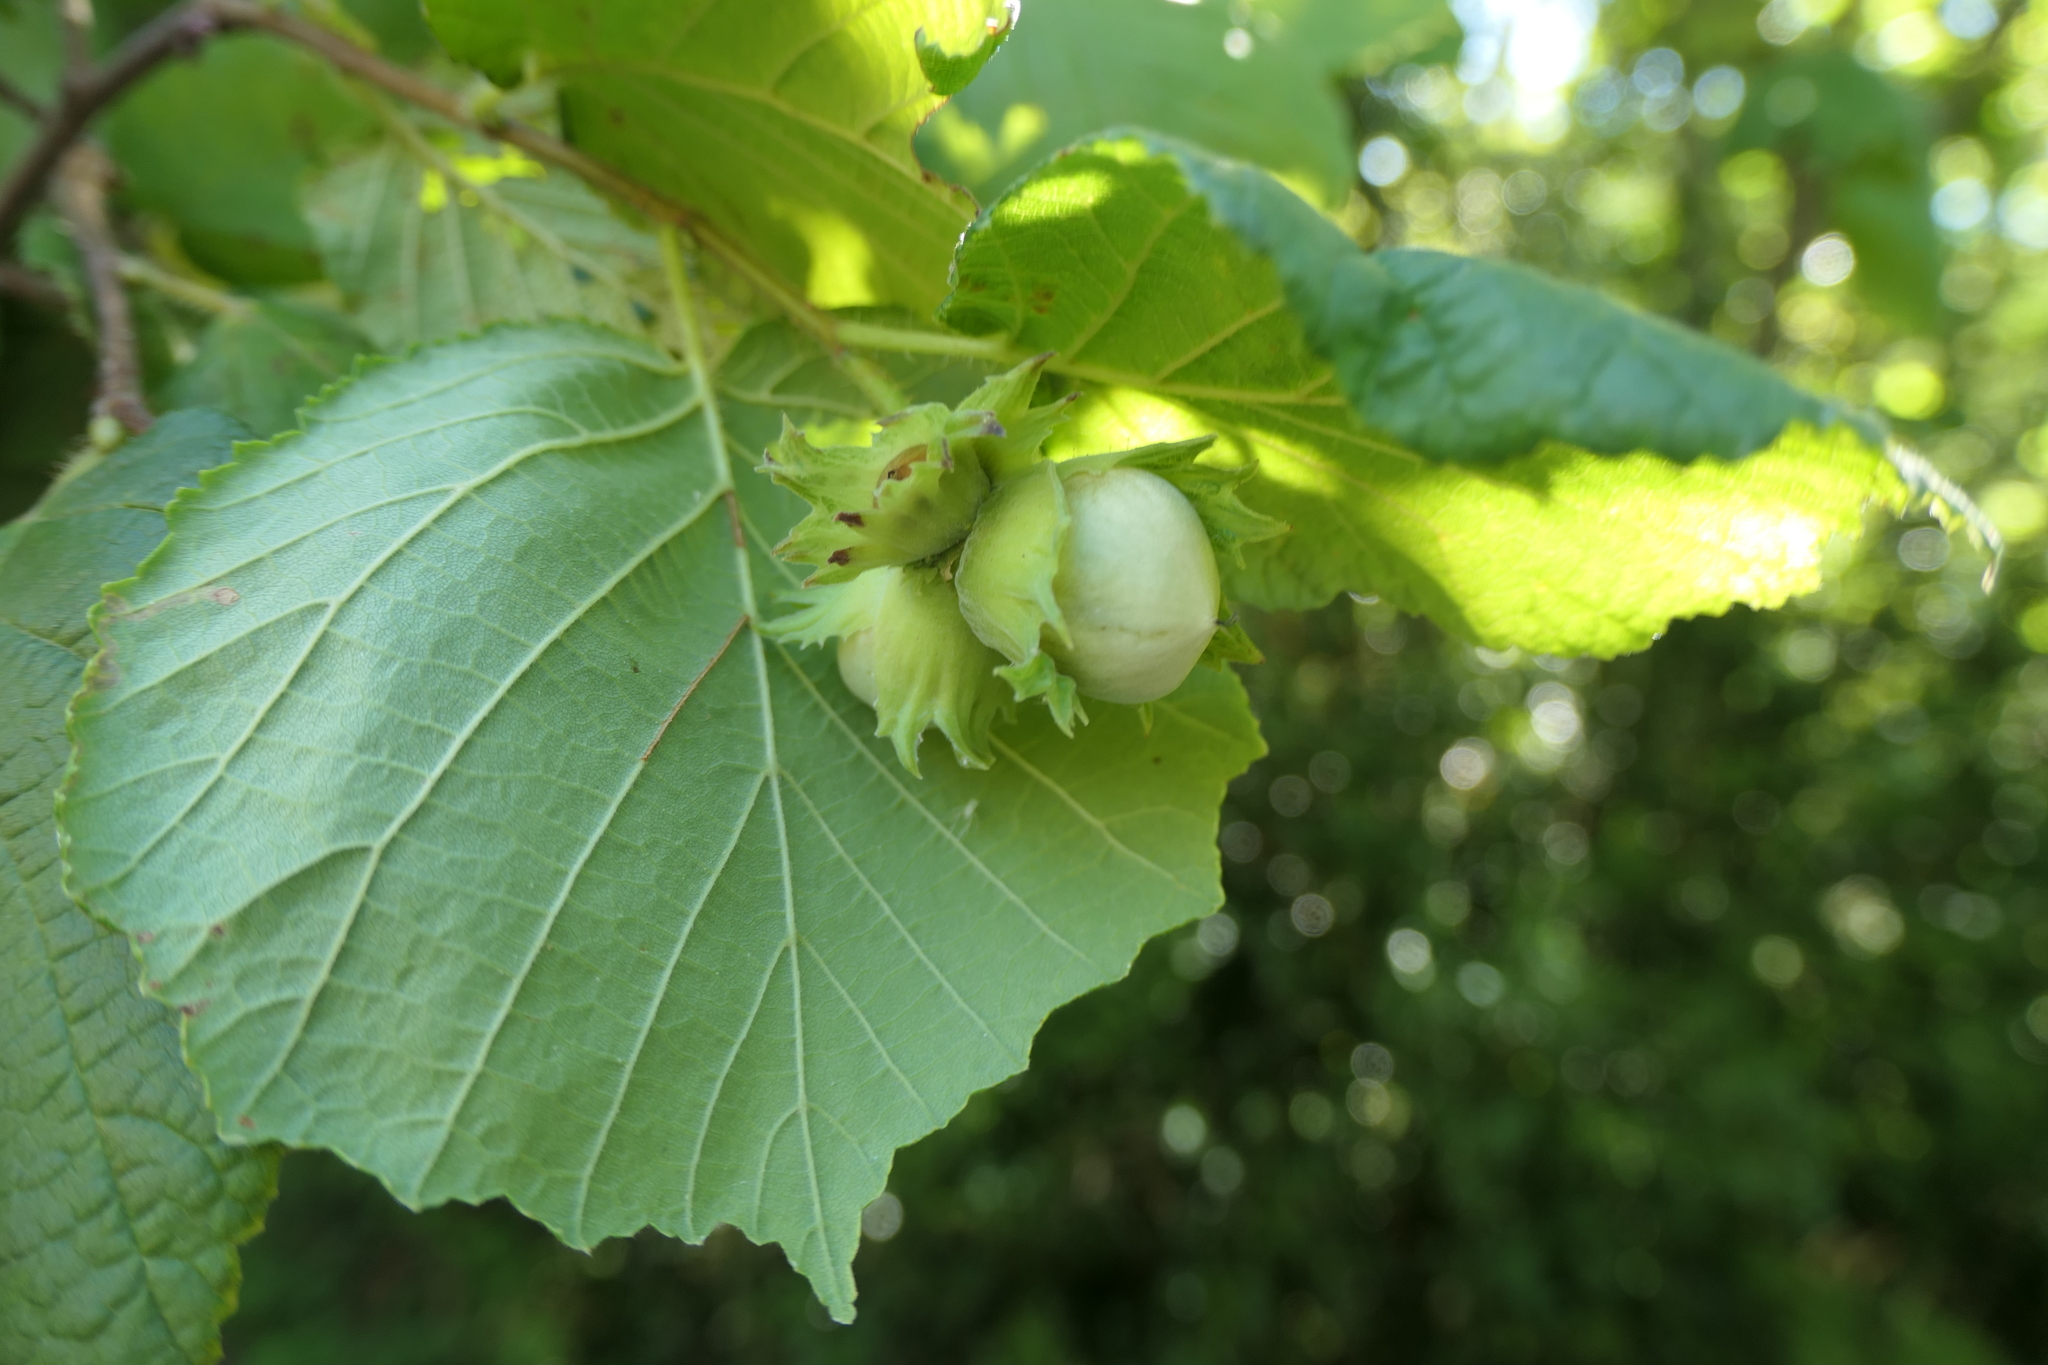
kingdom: Plantae
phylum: Tracheophyta
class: Magnoliopsida
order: Fagales
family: Betulaceae
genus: Corylus
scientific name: Corylus avellana
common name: European hazel
